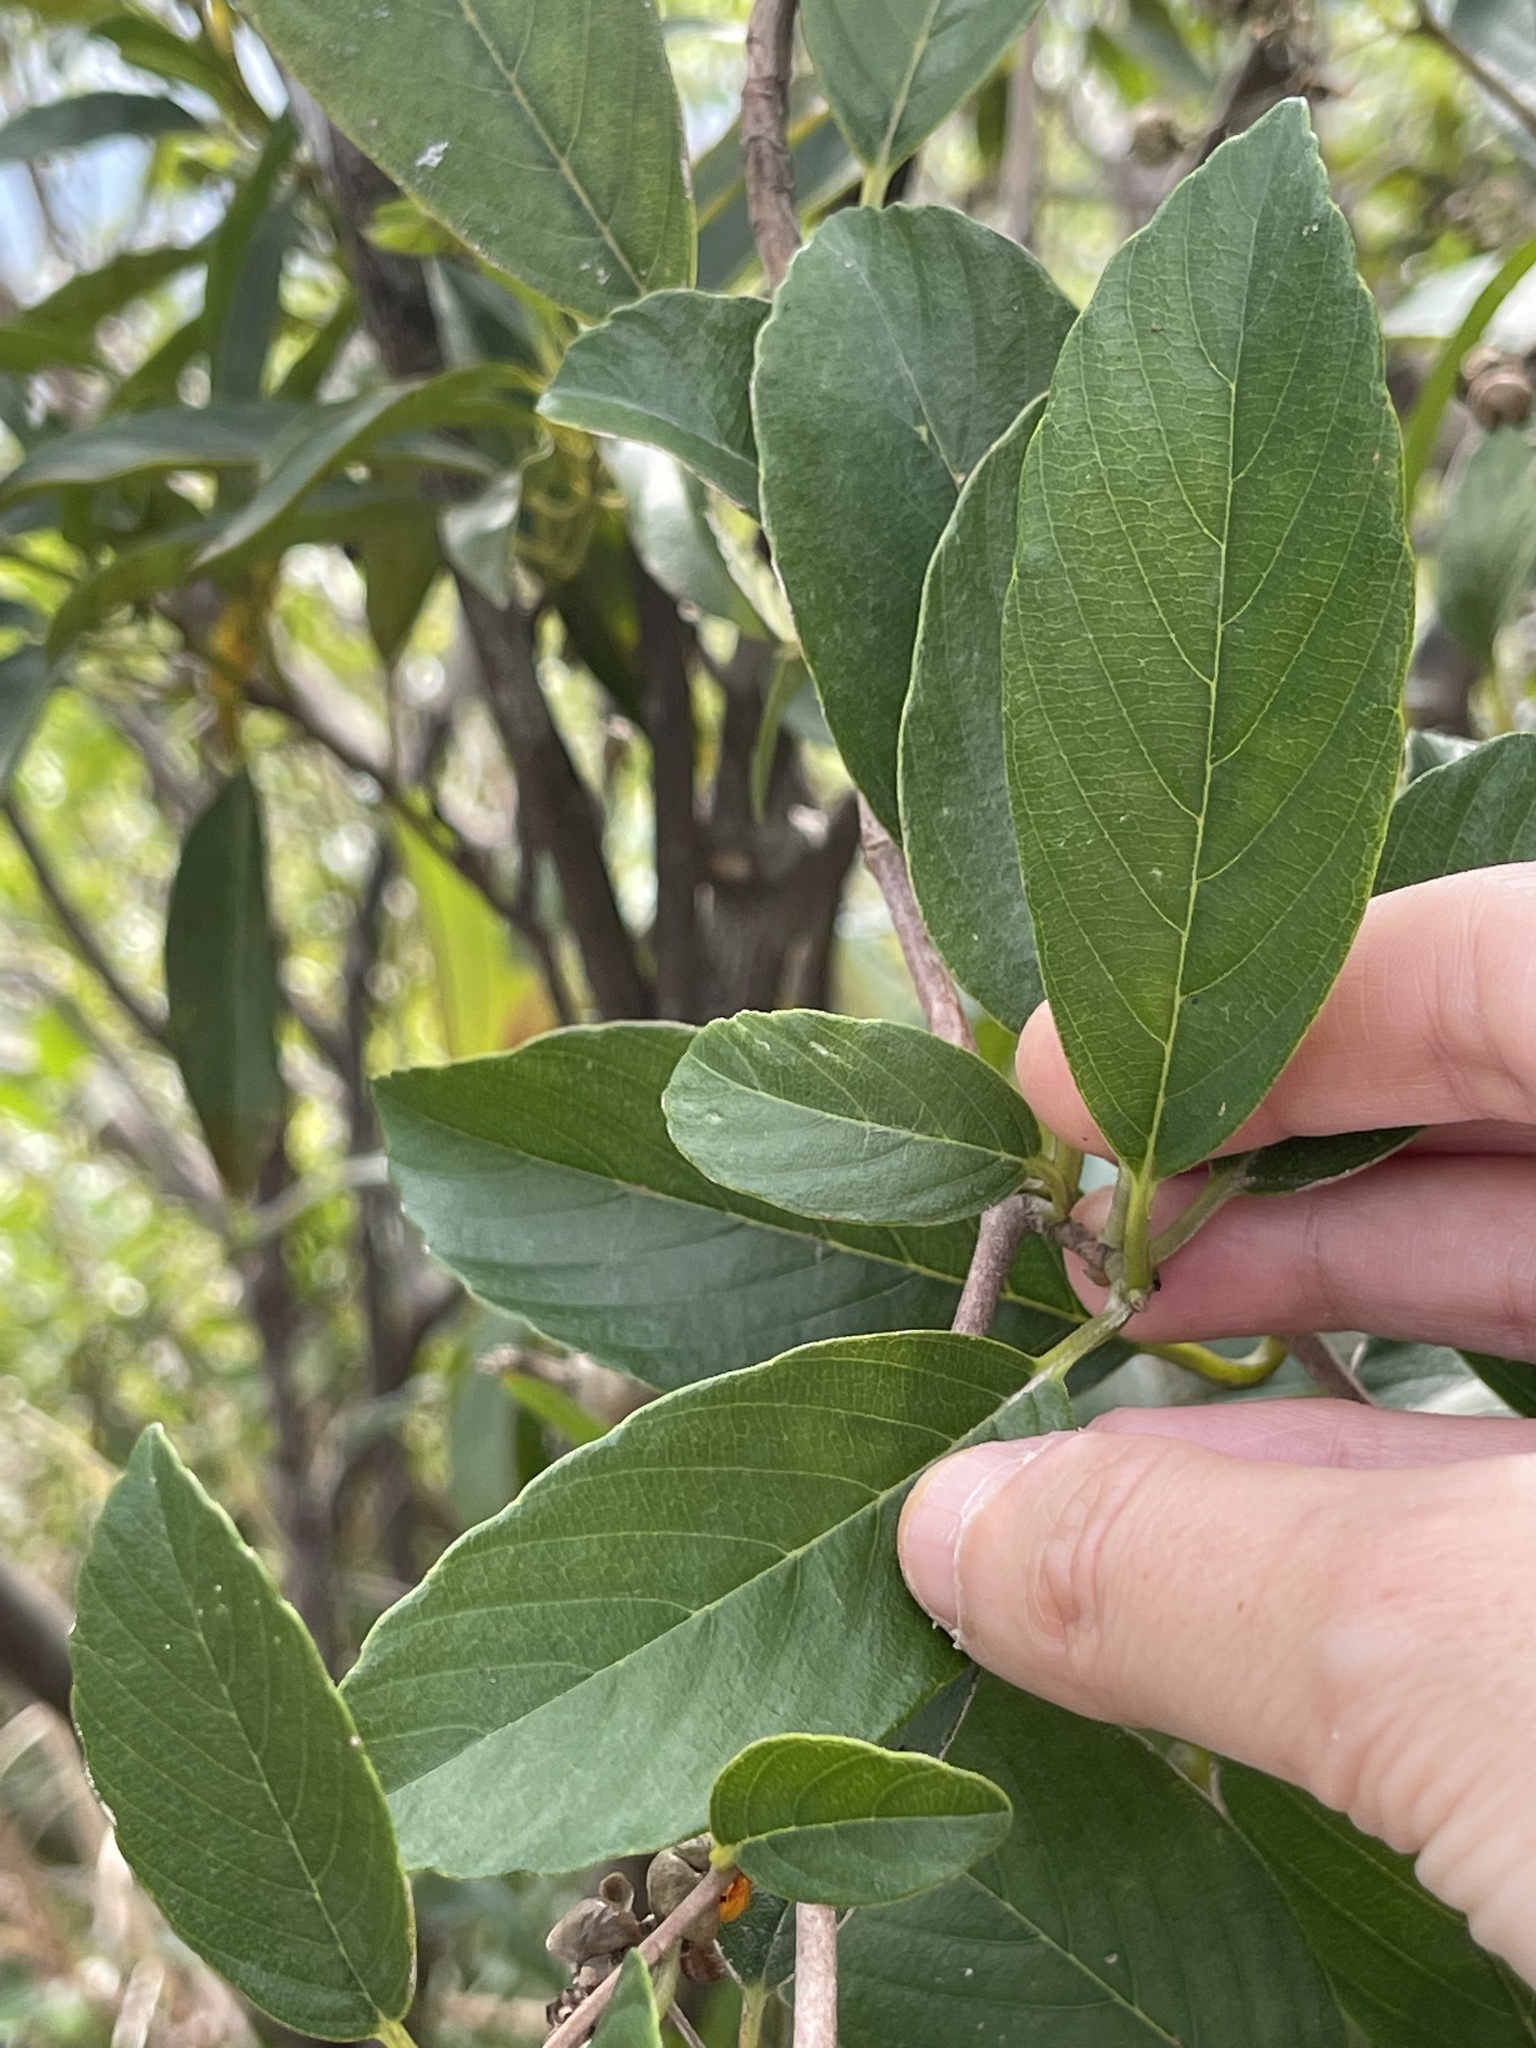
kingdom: Plantae
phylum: Tracheophyta
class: Magnoliopsida
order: Dilleniales
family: Dilleniaceae
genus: Tetracera
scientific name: Tetracera sarmentosa
